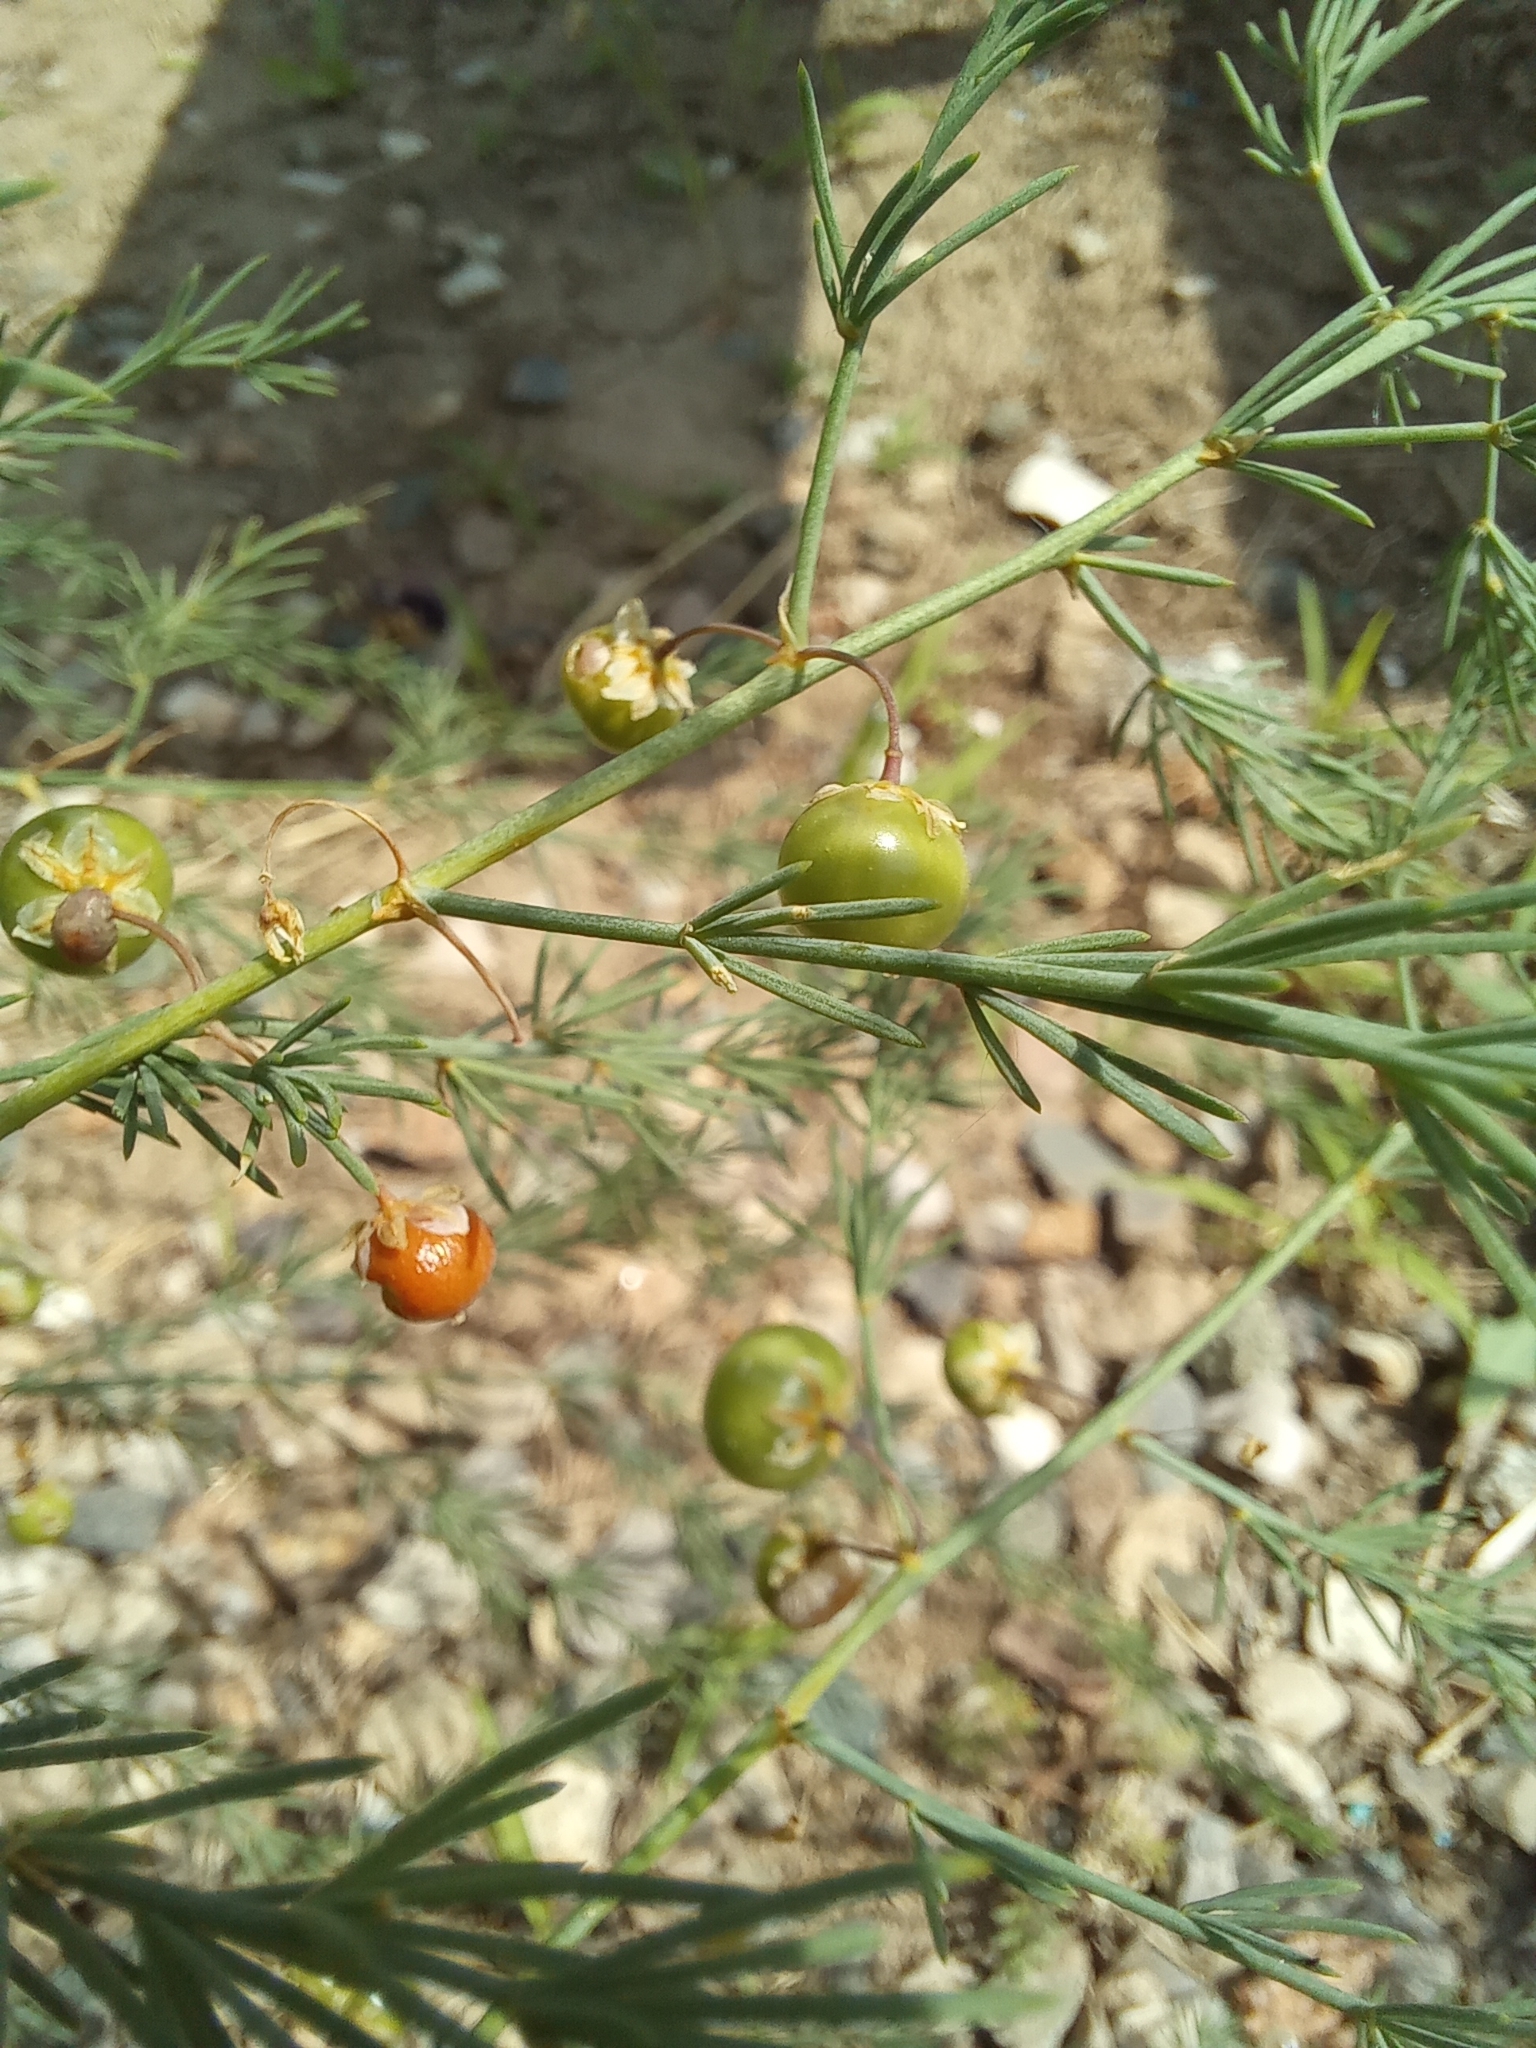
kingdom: Plantae
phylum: Tracheophyta
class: Liliopsida
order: Asparagales
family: Asparagaceae
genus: Asparagus
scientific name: Asparagus officinalis
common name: Garden asparagus
